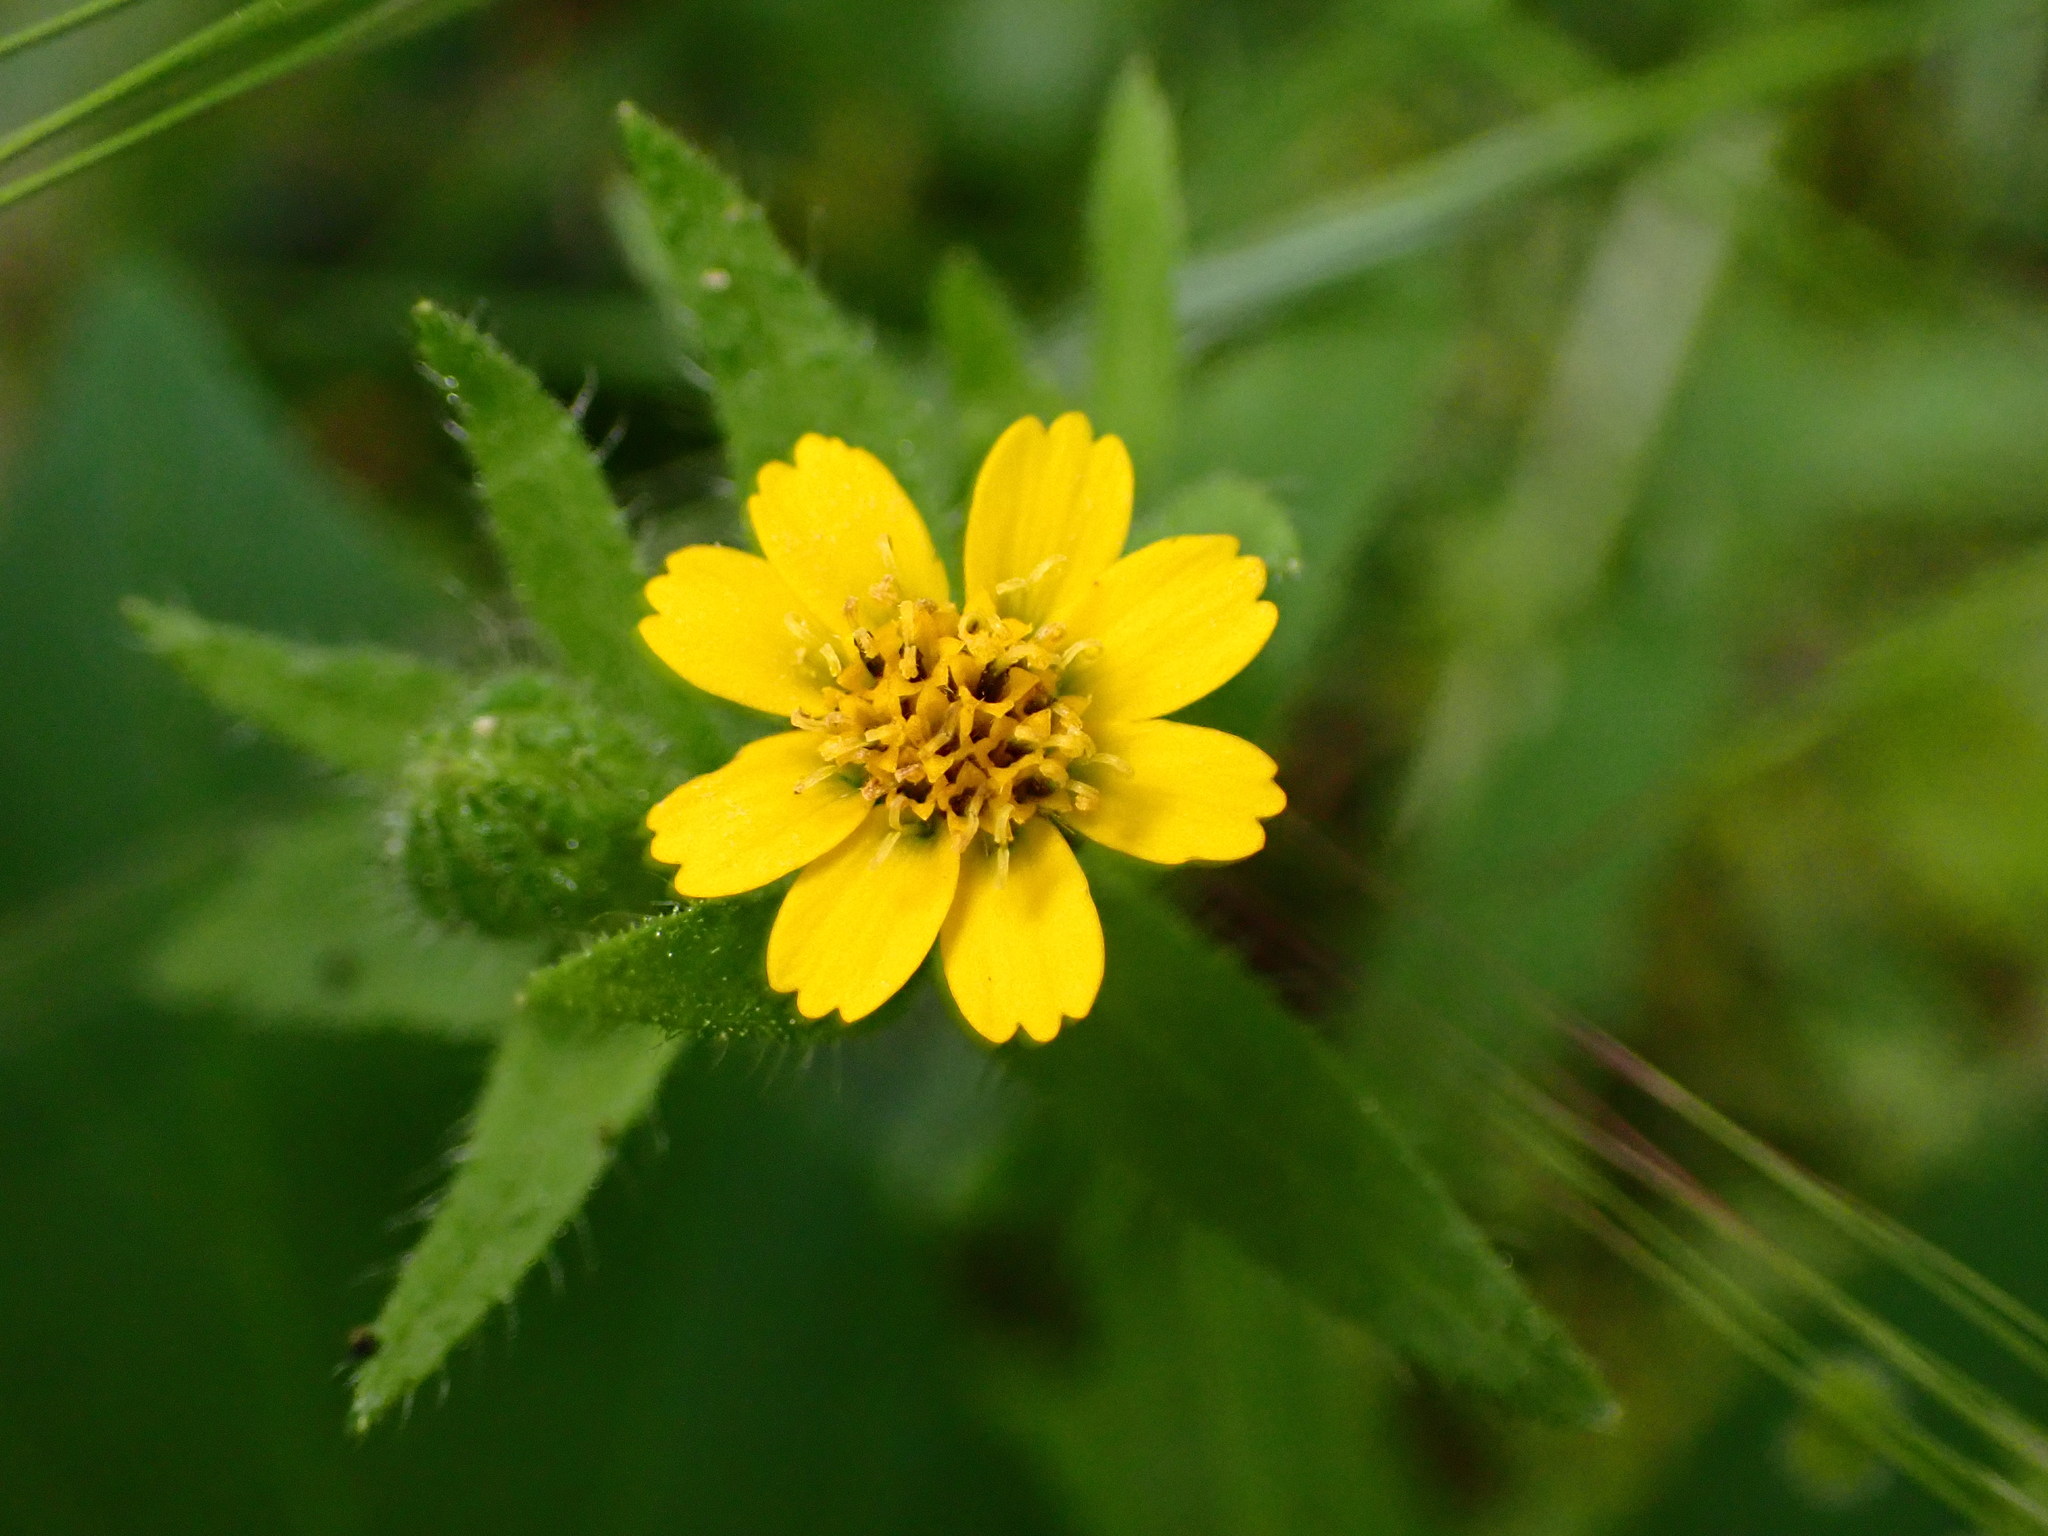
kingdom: Plantae
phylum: Tracheophyta
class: Magnoliopsida
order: Asterales
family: Asteraceae
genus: Layia
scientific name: Layia hieracioides
